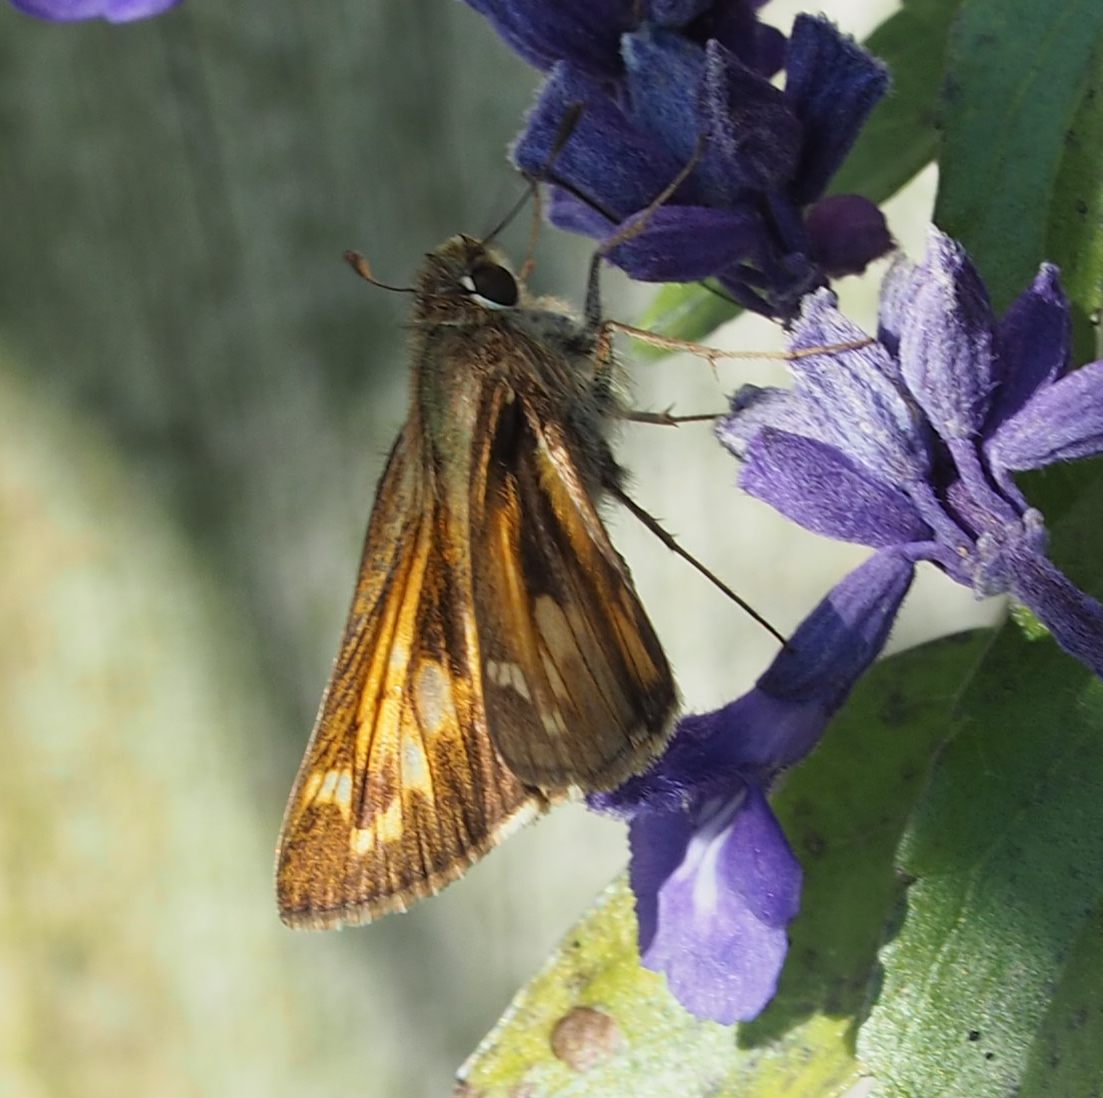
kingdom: Animalia
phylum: Arthropoda
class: Insecta
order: Lepidoptera
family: Hesperiidae
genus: Atalopedes
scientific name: Atalopedes
